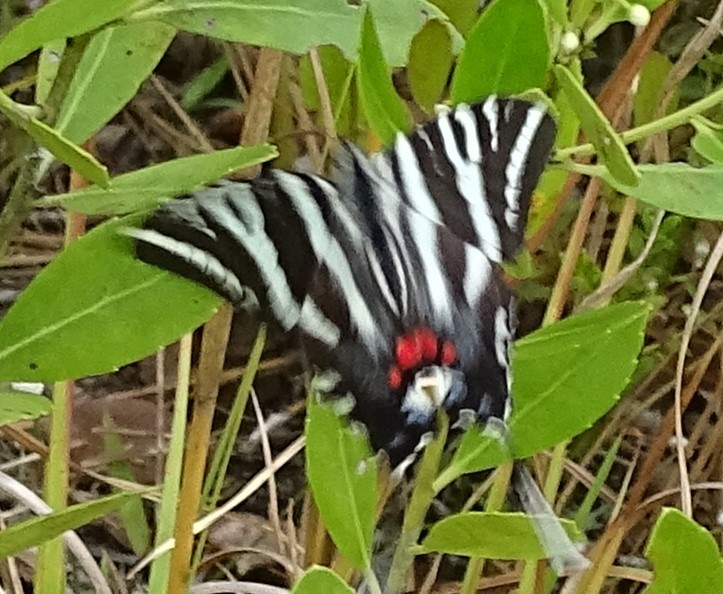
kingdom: Animalia
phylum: Arthropoda
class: Insecta
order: Lepidoptera
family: Papilionidae
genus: Protographium
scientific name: Protographium marcellus
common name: Zebra swallowtail
